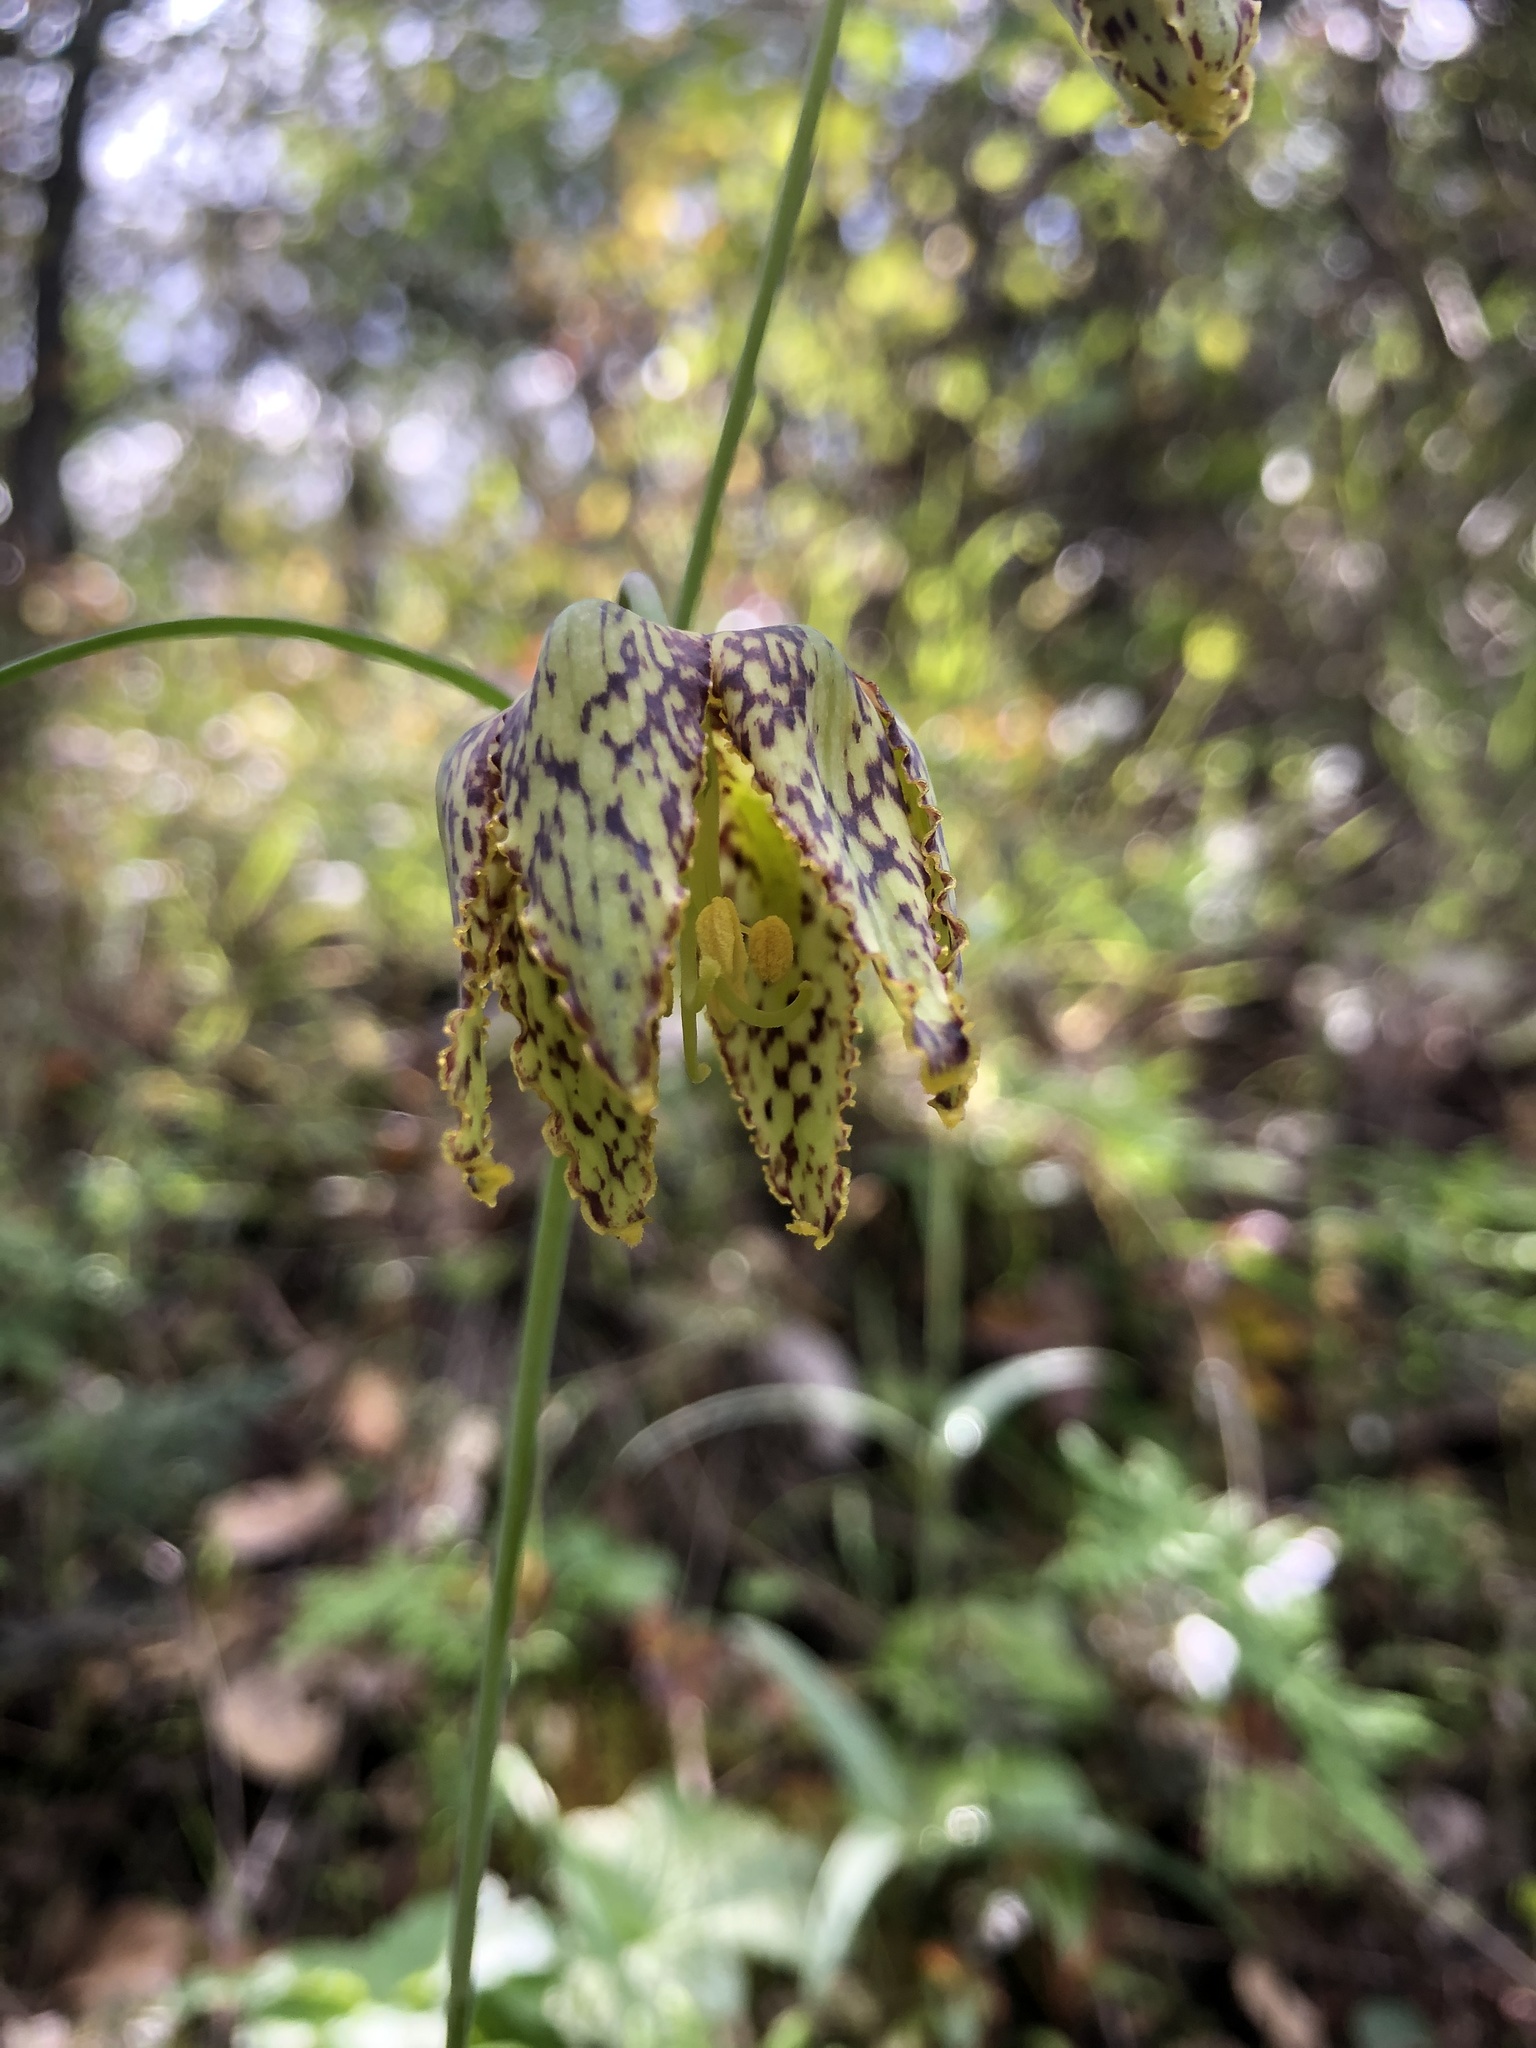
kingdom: Plantae
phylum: Tracheophyta
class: Liliopsida
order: Liliales
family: Liliaceae
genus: Fritillaria
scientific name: Fritillaria affinis
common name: Ojai fritillary
